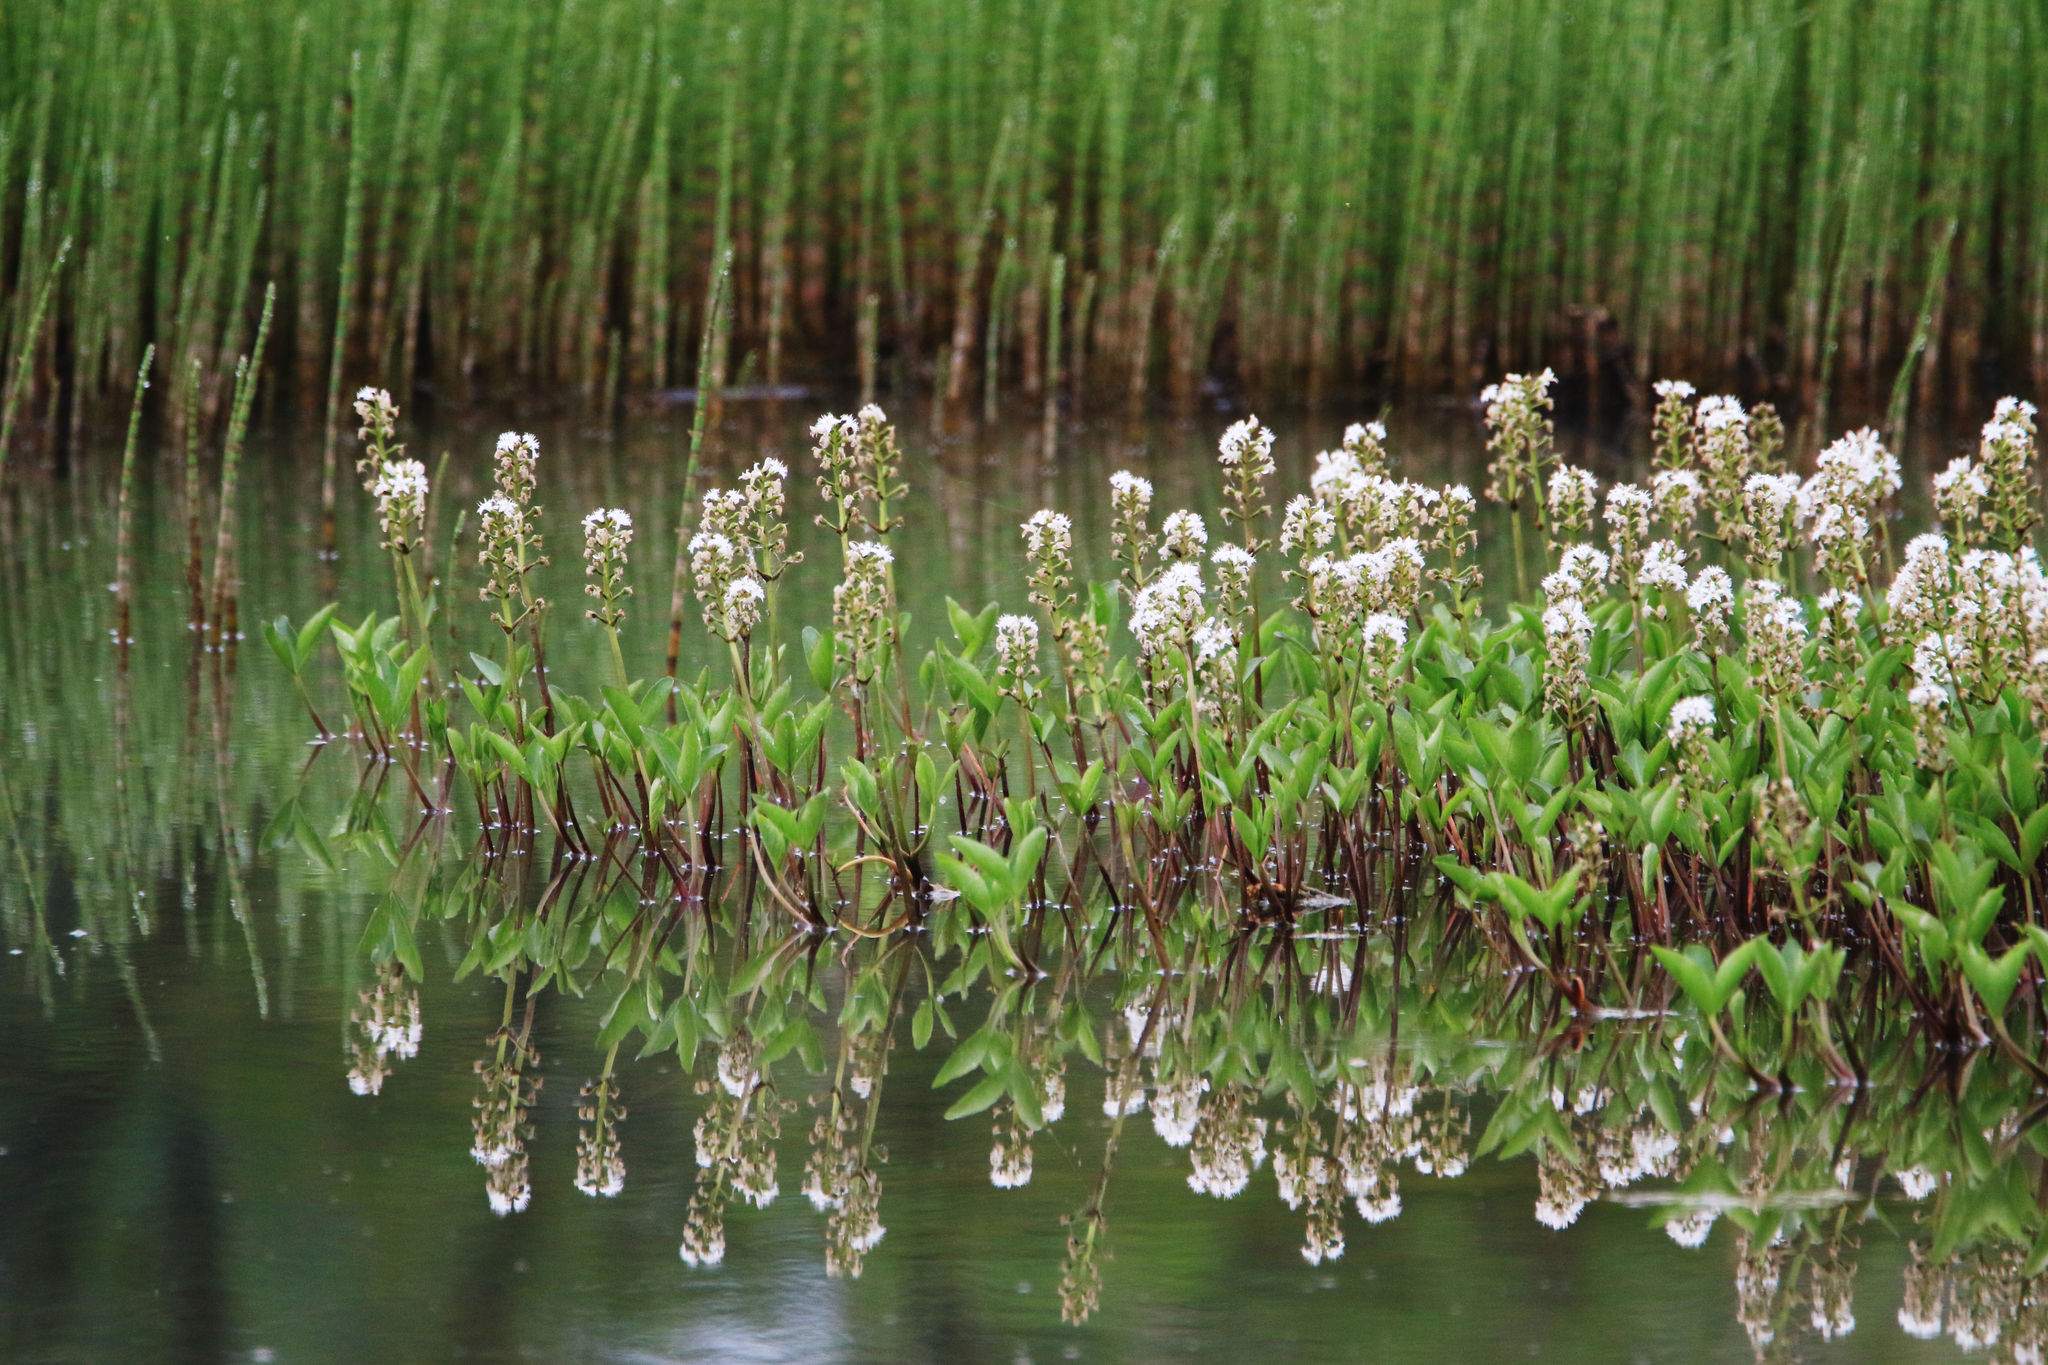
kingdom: Plantae
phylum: Tracheophyta
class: Magnoliopsida
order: Asterales
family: Menyanthaceae
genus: Menyanthes
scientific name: Menyanthes trifoliata
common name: Bogbean
